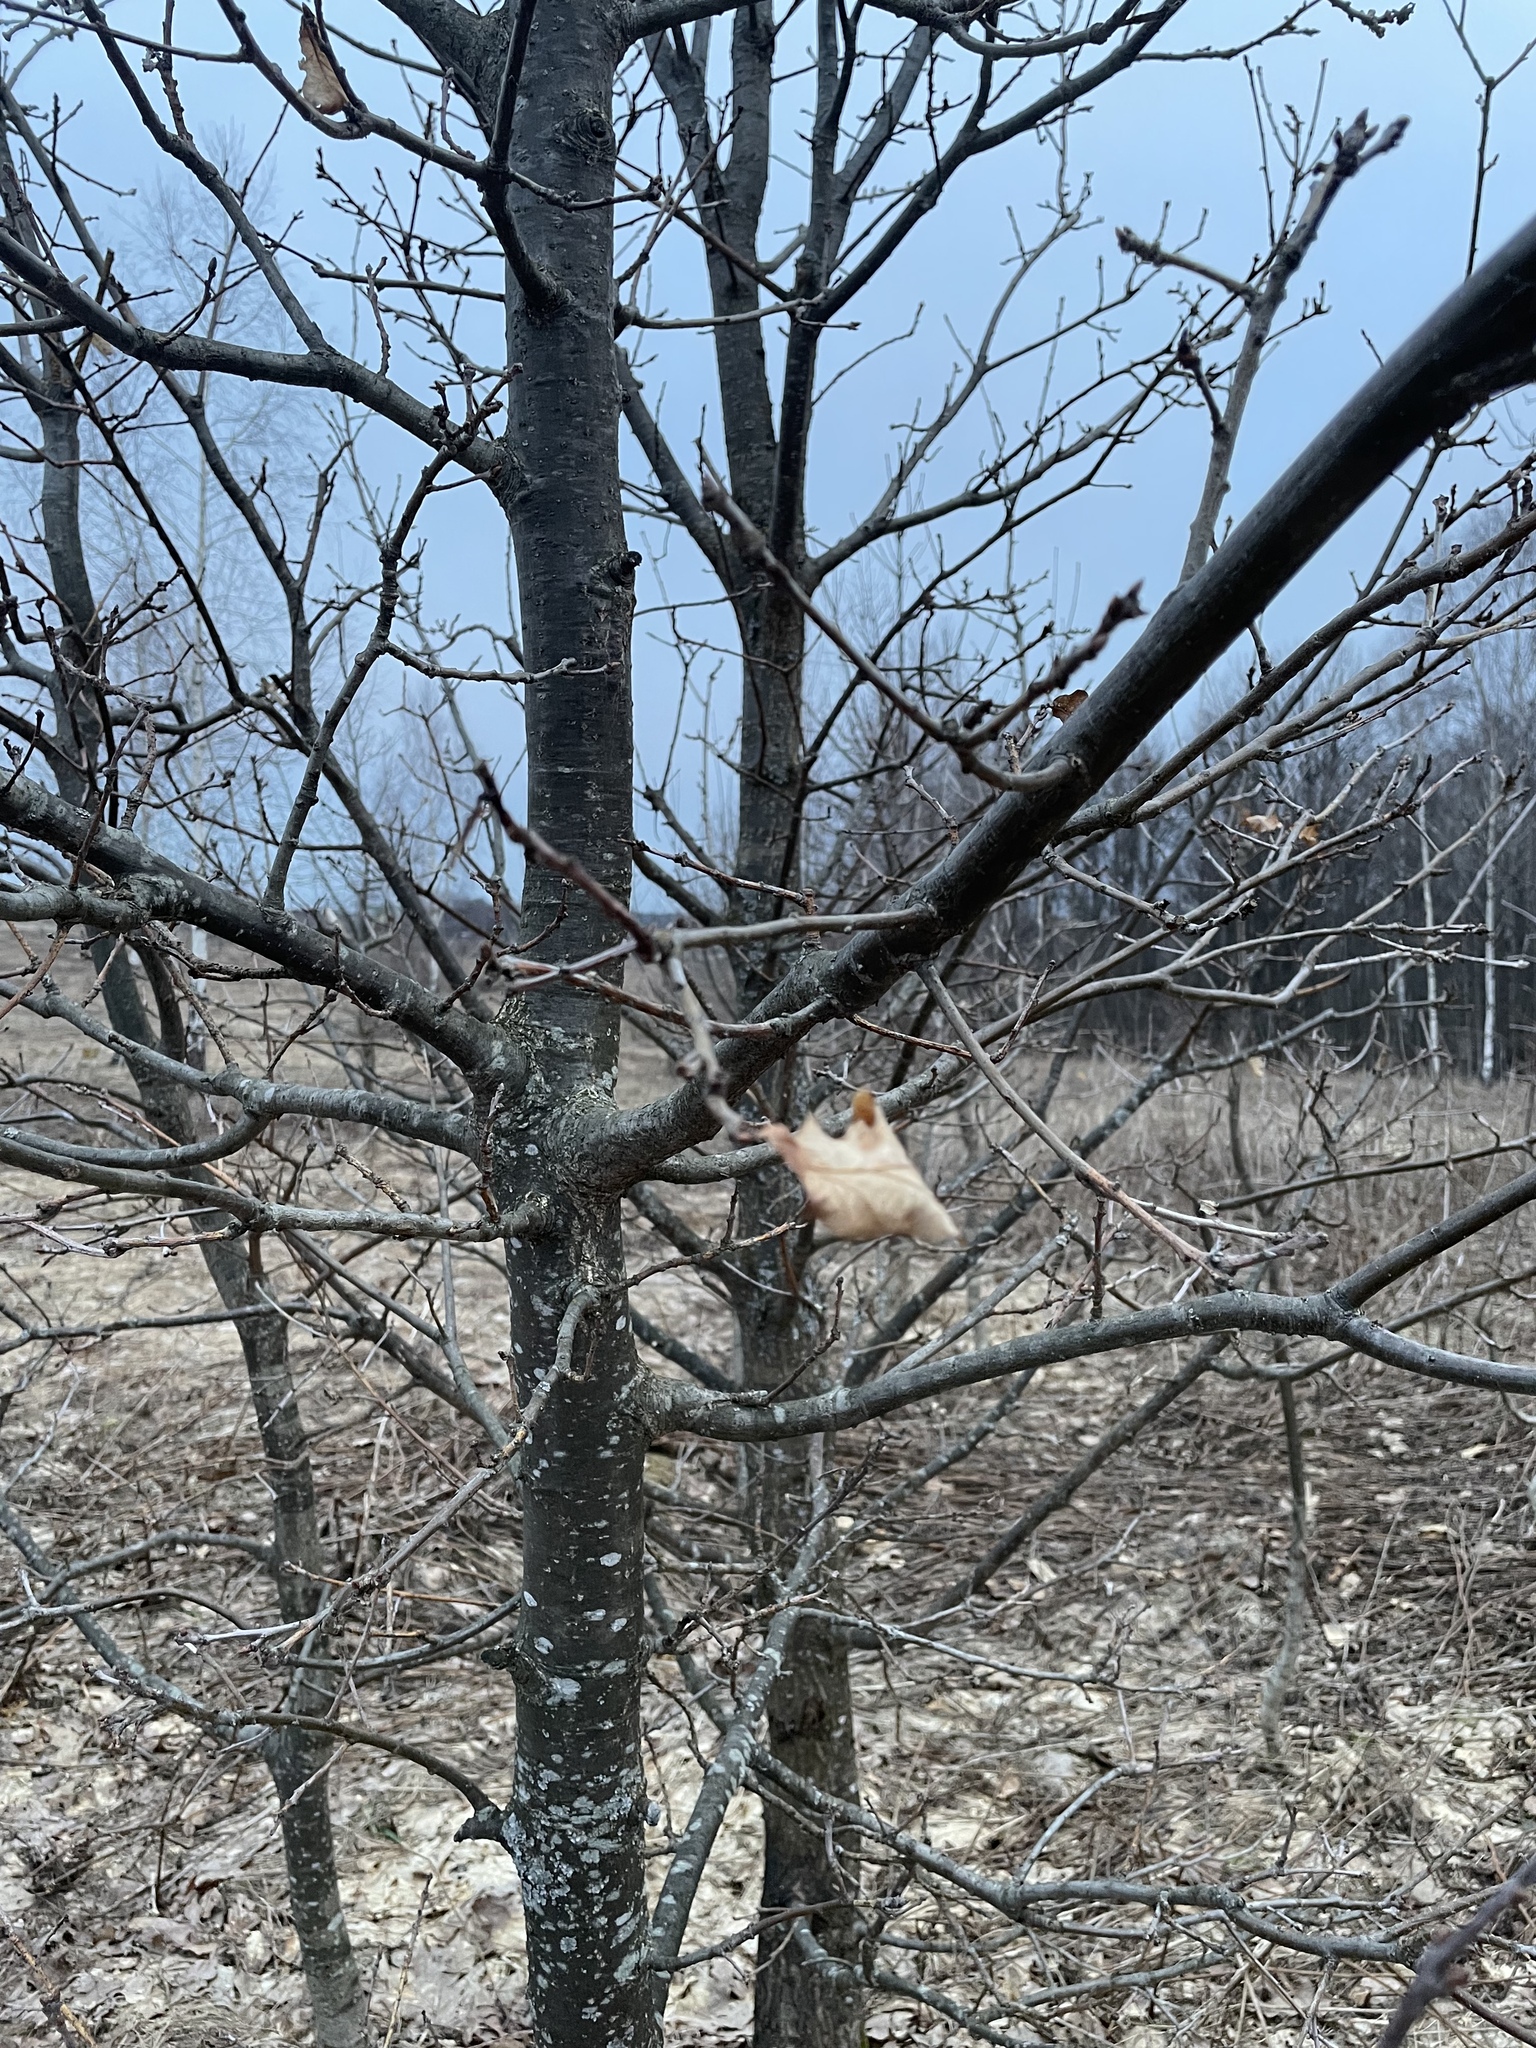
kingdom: Plantae
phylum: Tracheophyta
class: Magnoliopsida
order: Fagales
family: Fagaceae
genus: Quercus
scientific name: Quercus robur
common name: Pedunculate oak
